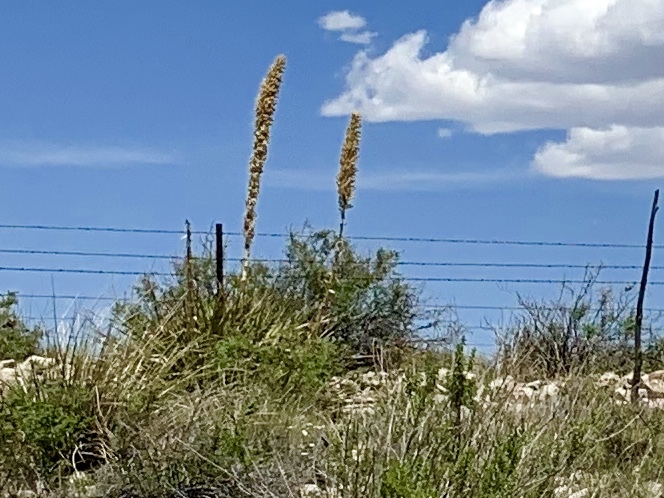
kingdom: Plantae
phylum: Tracheophyta
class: Liliopsida
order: Asparagales
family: Asparagaceae
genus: Dasylirion
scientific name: Dasylirion wheeleri
